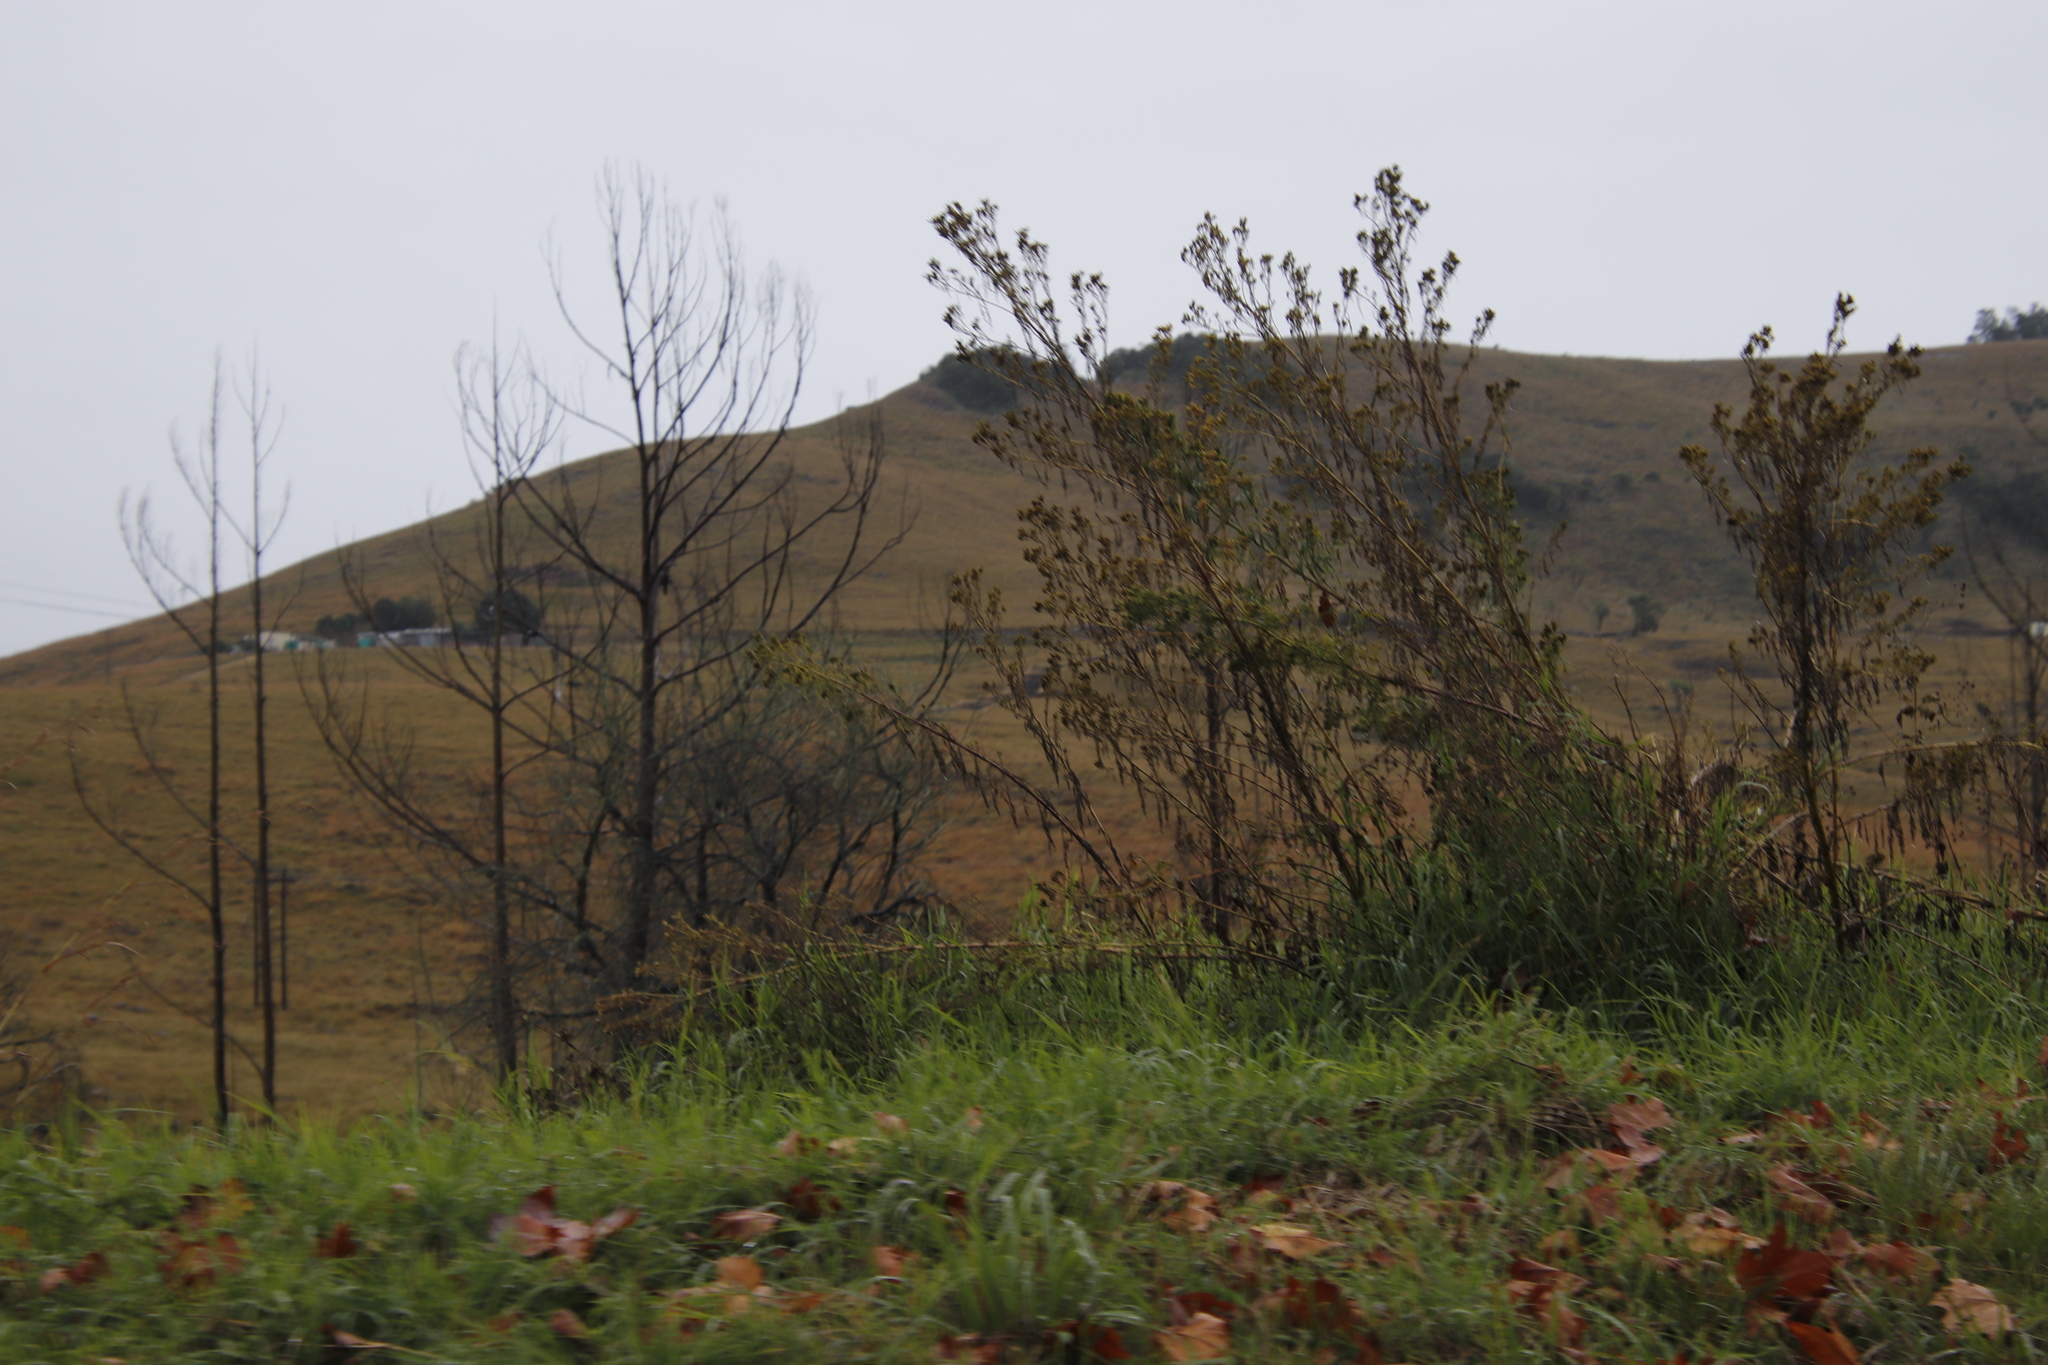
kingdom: Plantae
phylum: Tracheophyta
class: Magnoliopsida
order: Asterales
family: Asteraceae
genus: Tagetes
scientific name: Tagetes minuta
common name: Muster john henry
